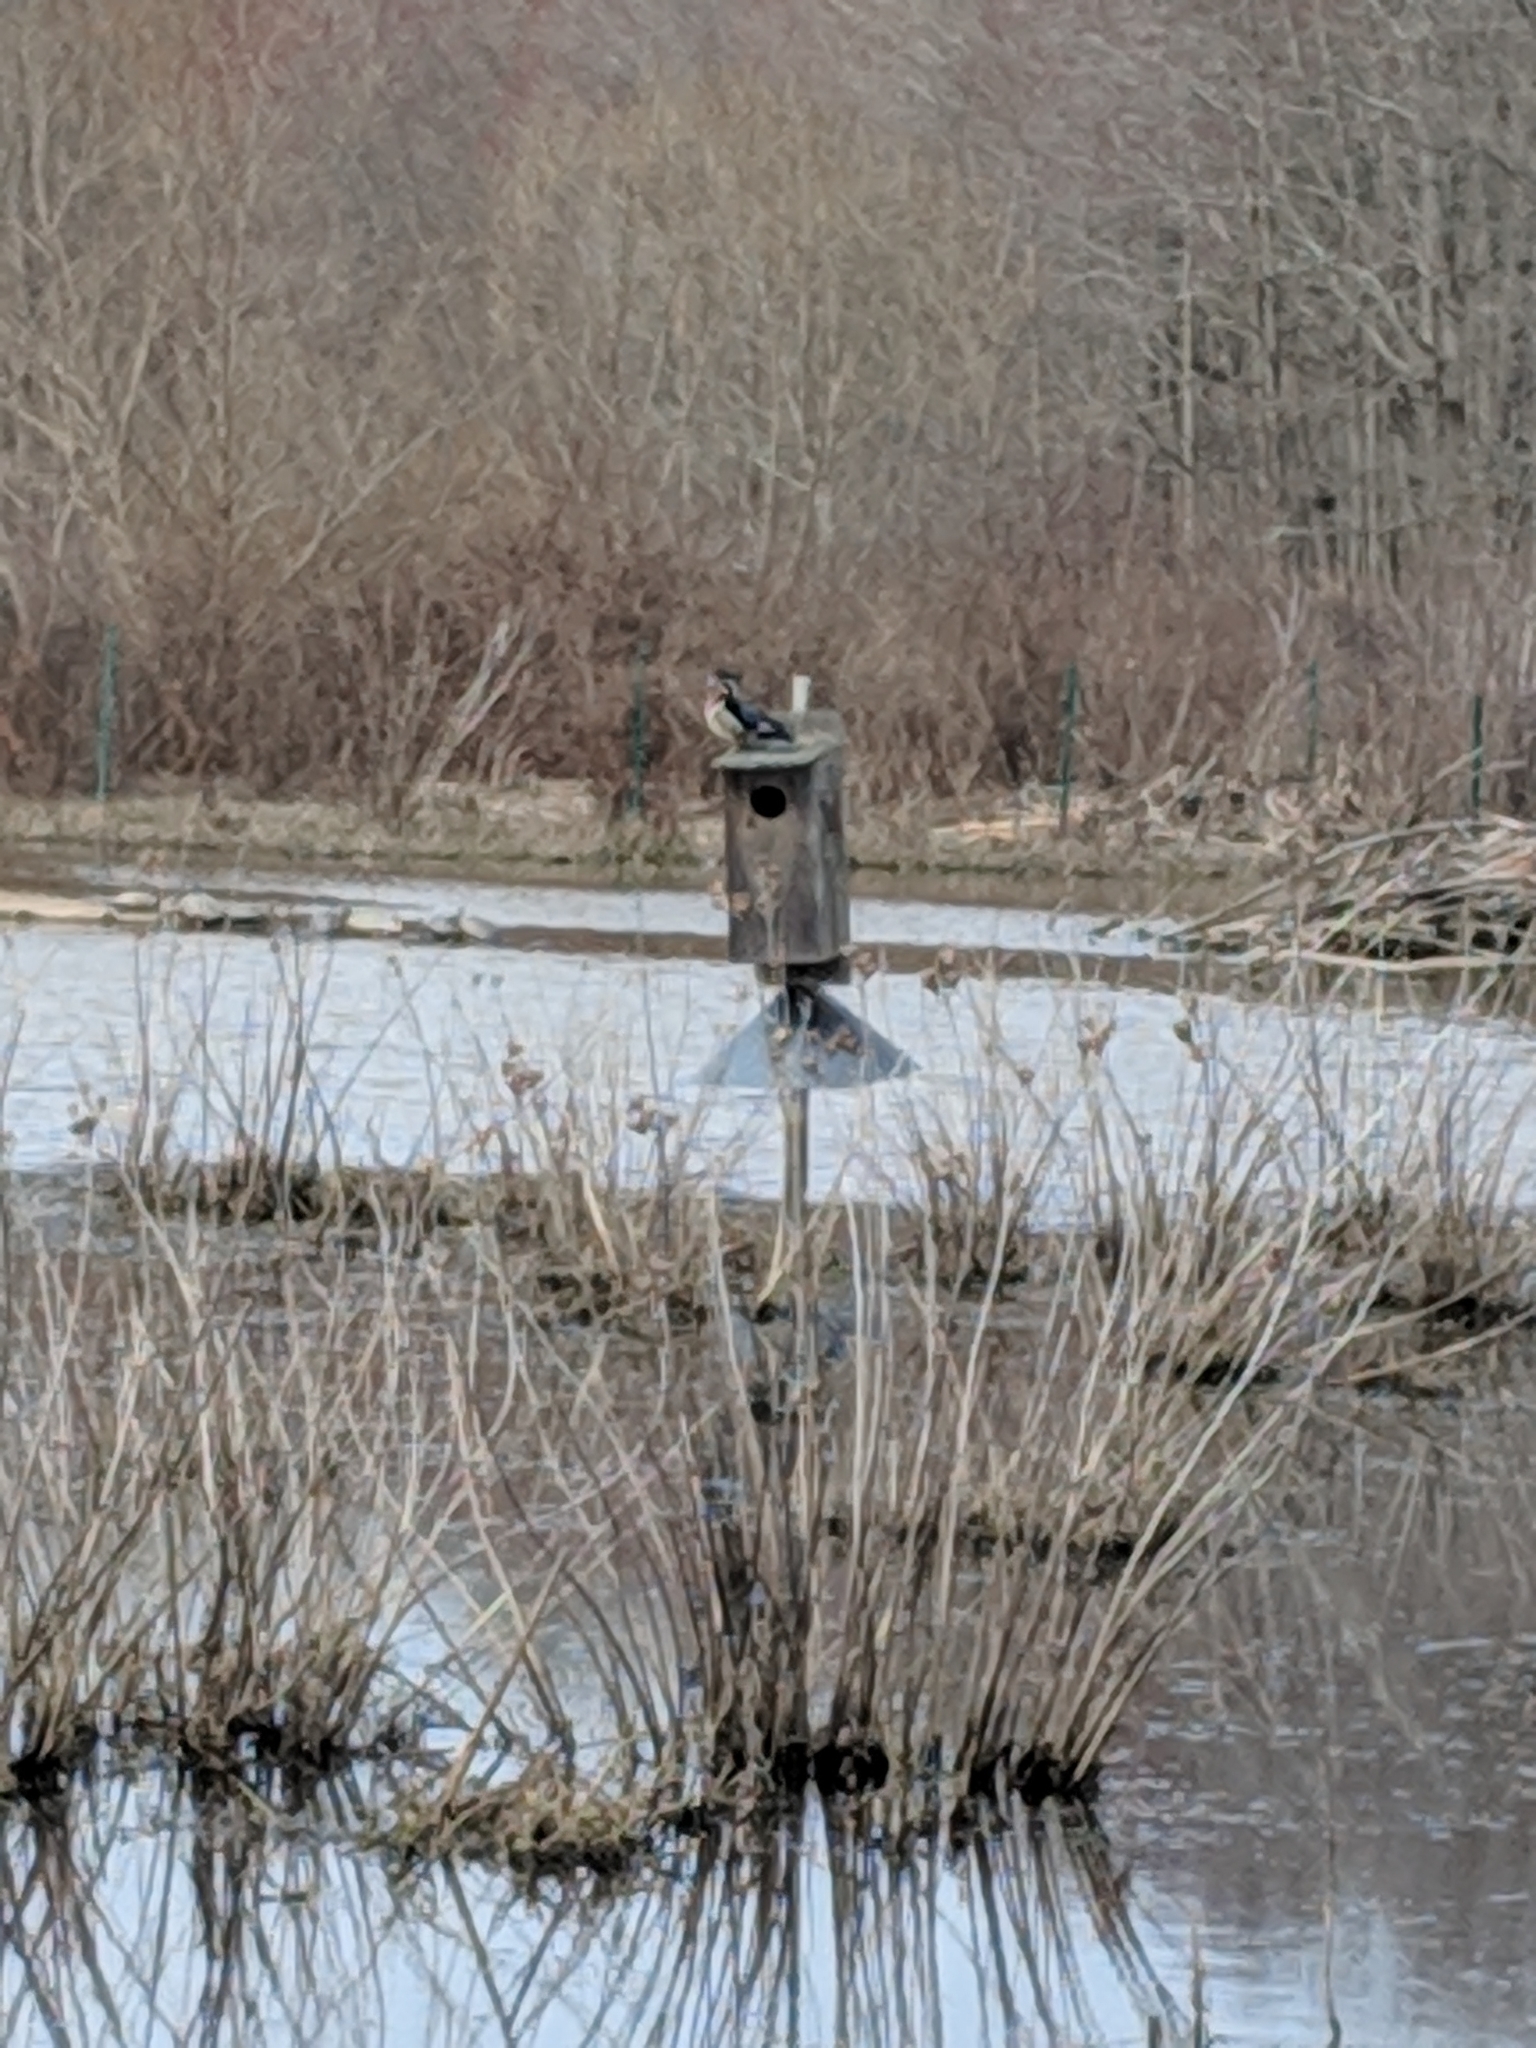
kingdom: Animalia
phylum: Chordata
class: Aves
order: Anseriformes
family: Anatidae
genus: Aix
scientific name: Aix sponsa
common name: Wood duck
